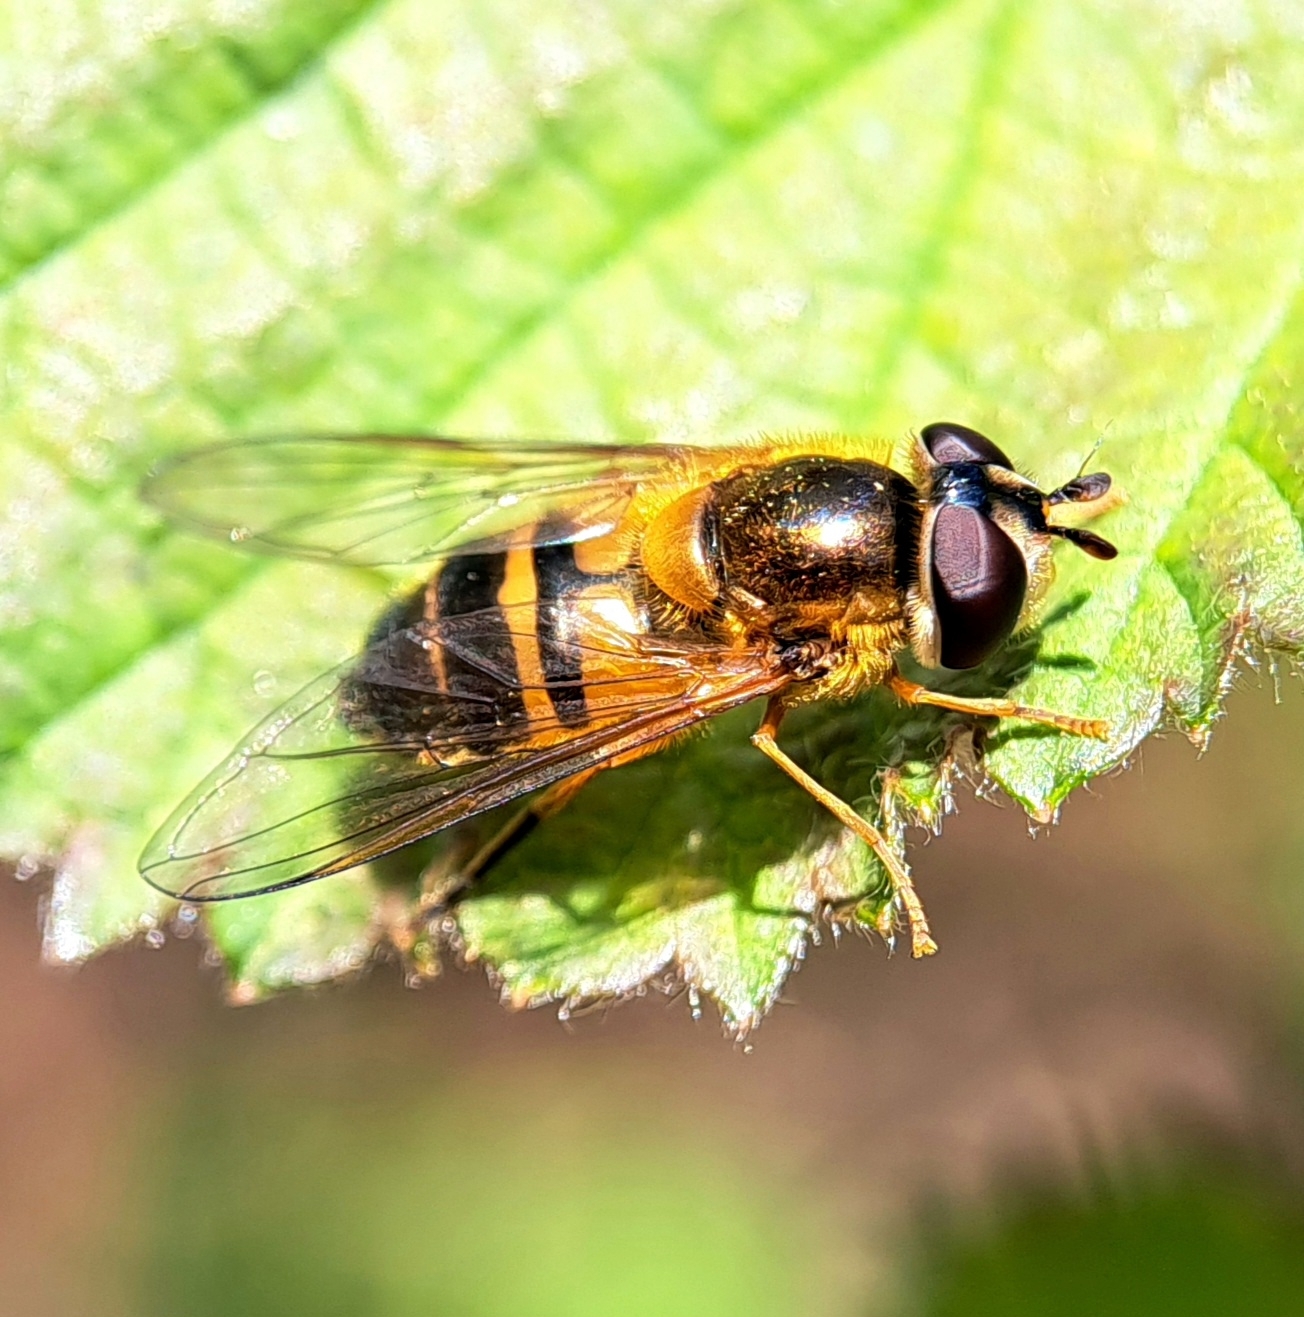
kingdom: Animalia
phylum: Arthropoda
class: Insecta
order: Diptera
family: Syrphidae
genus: Epistrophe
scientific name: Epistrophe eligans
